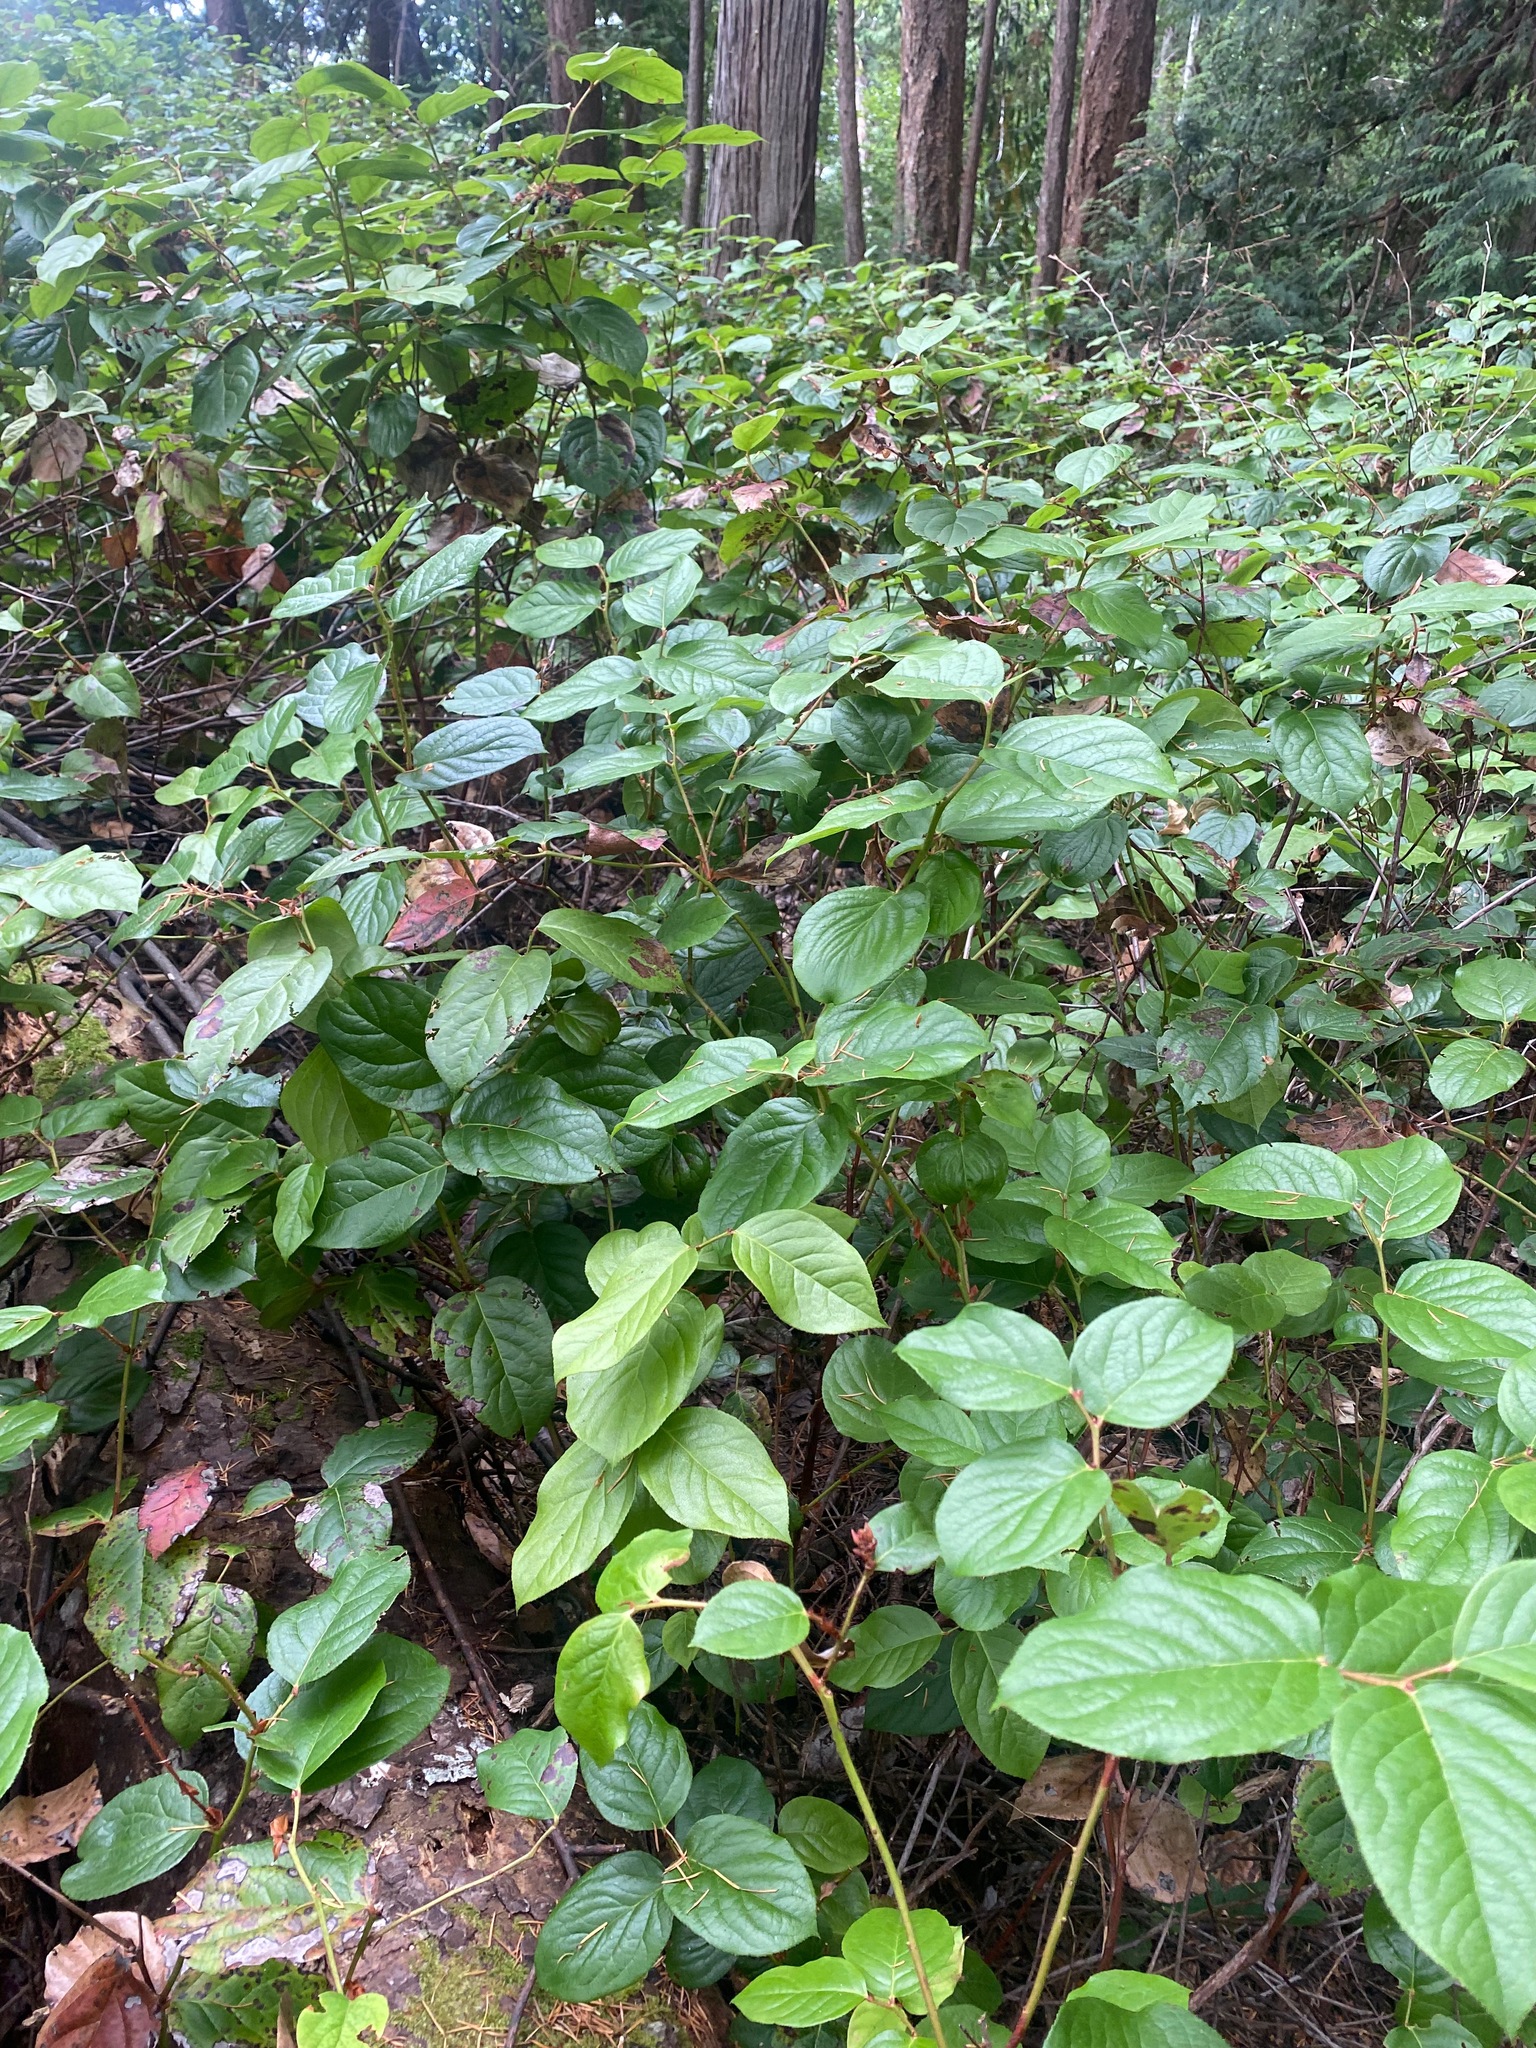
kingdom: Plantae
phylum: Tracheophyta
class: Magnoliopsida
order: Ericales
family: Ericaceae
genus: Gaultheria
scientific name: Gaultheria shallon
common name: Shallon
